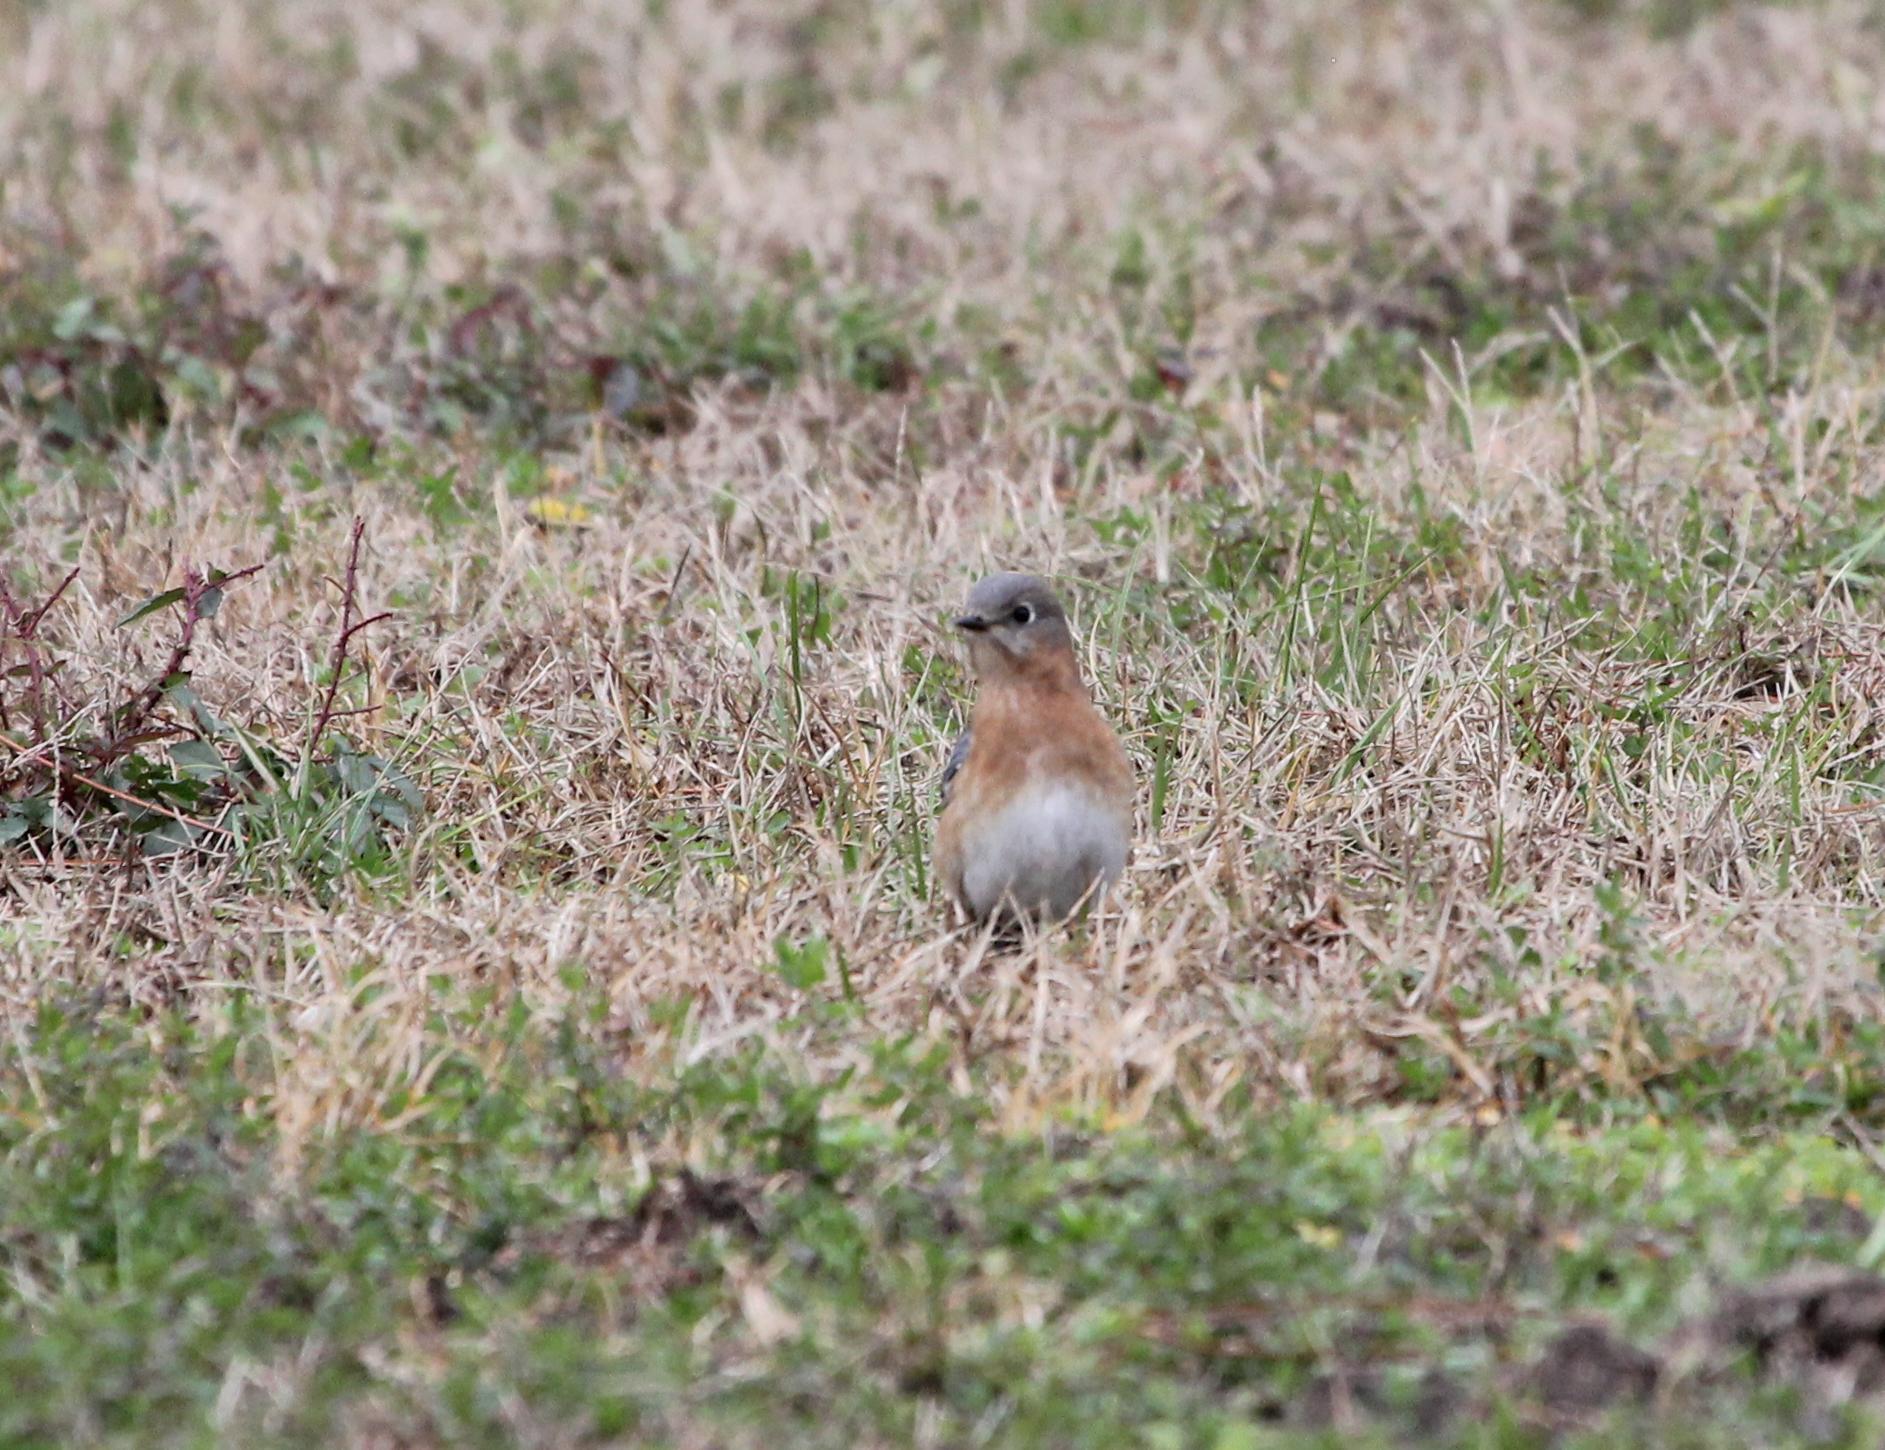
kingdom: Animalia
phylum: Chordata
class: Aves
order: Passeriformes
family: Turdidae
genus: Sialia
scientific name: Sialia sialis
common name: Eastern bluebird
